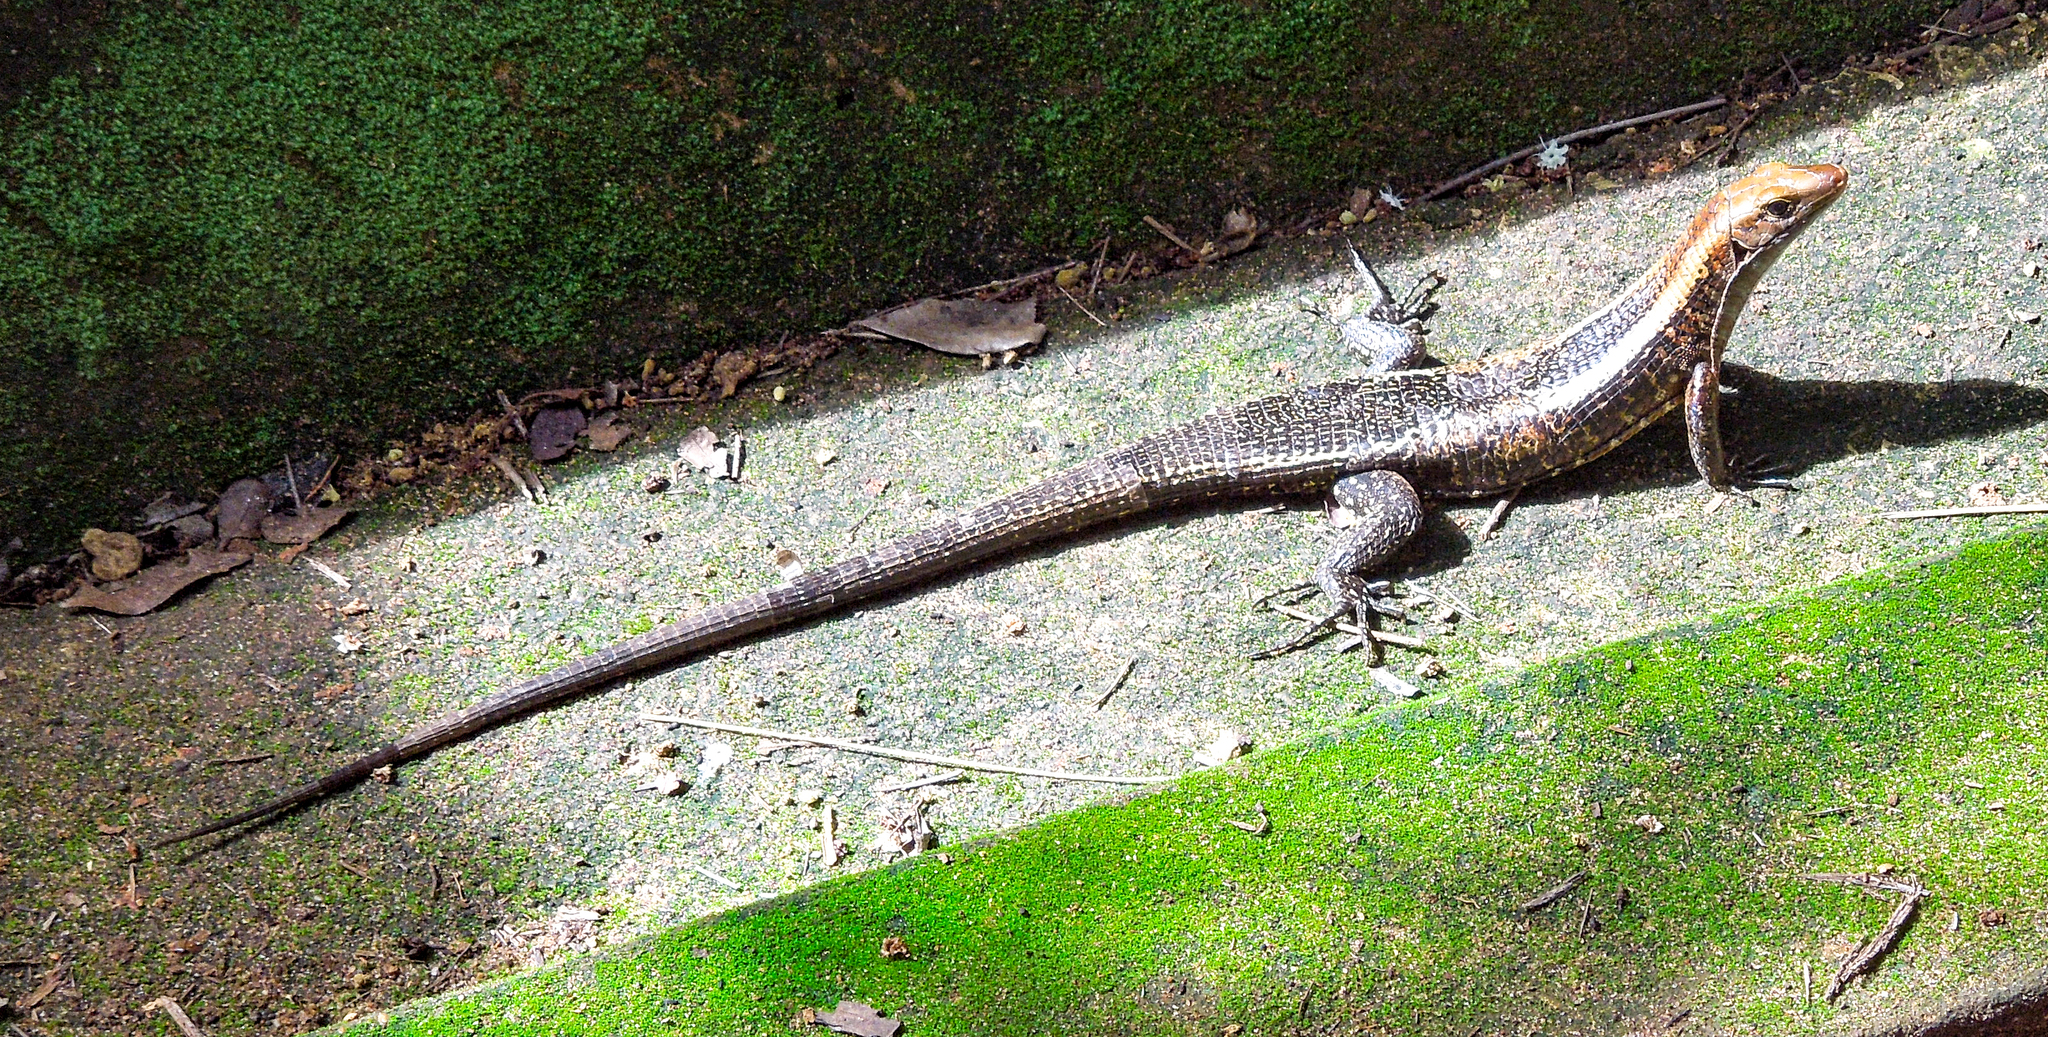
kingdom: Animalia
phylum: Chordata
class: Squamata
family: Gerrhosauridae
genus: Zonosaurus
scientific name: Zonosaurus laticaudatus
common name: Western girdled lizard
